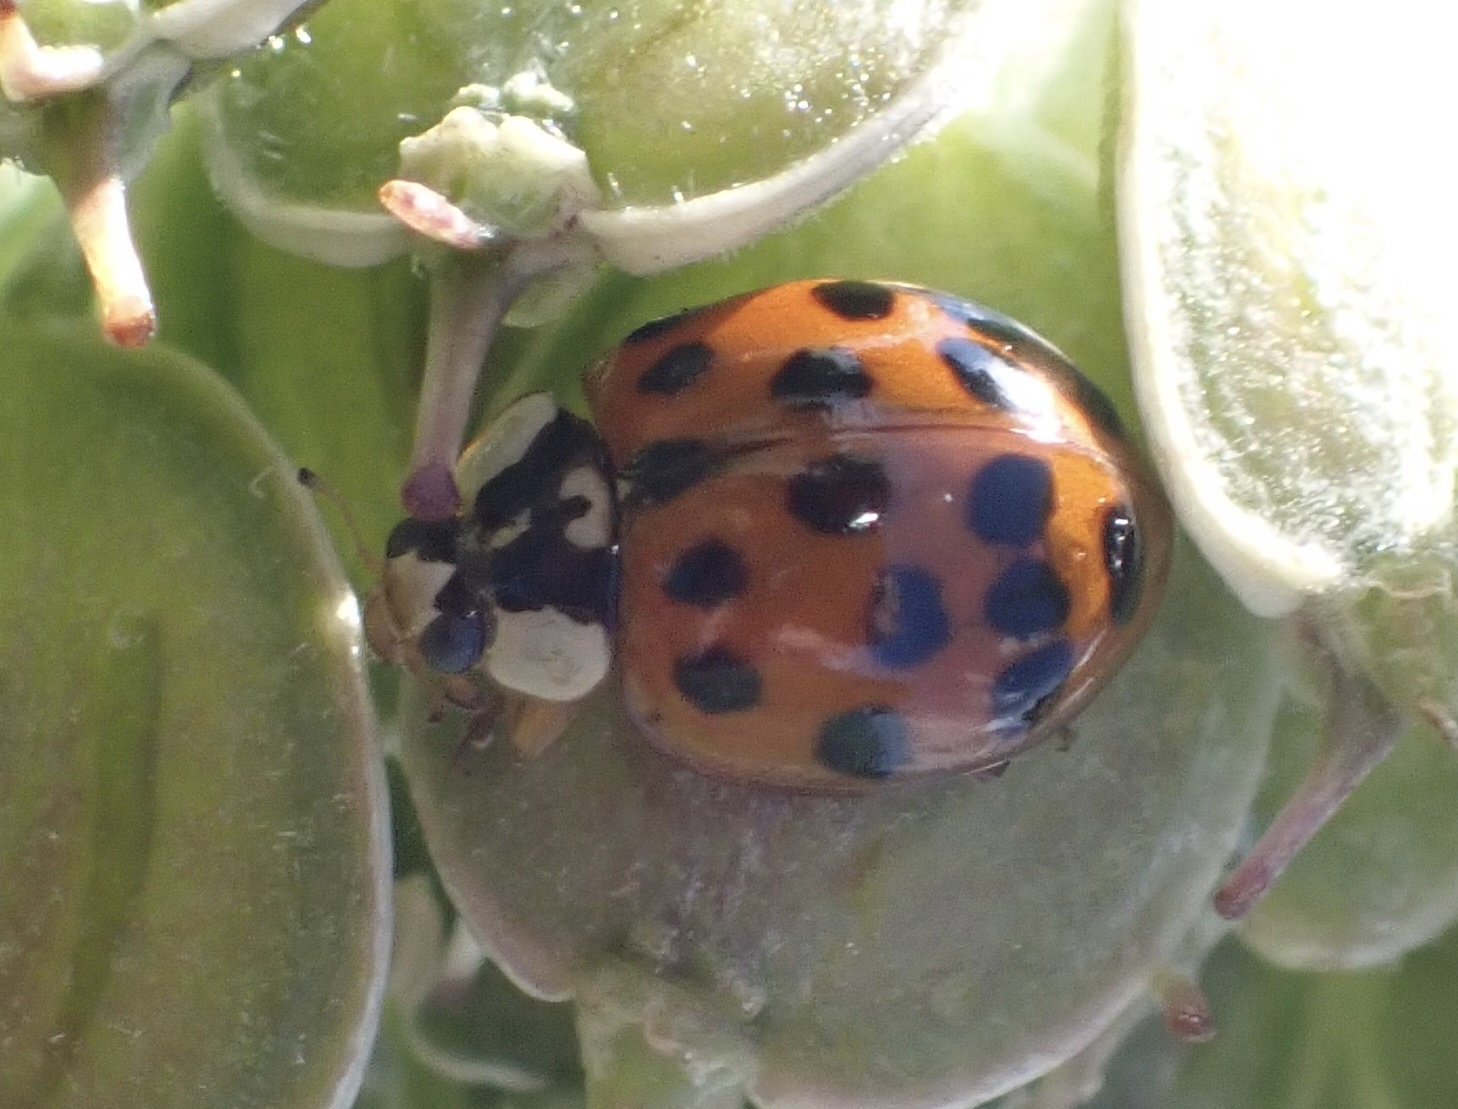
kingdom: Animalia
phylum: Arthropoda
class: Insecta
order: Coleoptera
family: Coccinellidae
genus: Harmonia
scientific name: Harmonia axyridis
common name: Harlequin ladybird
